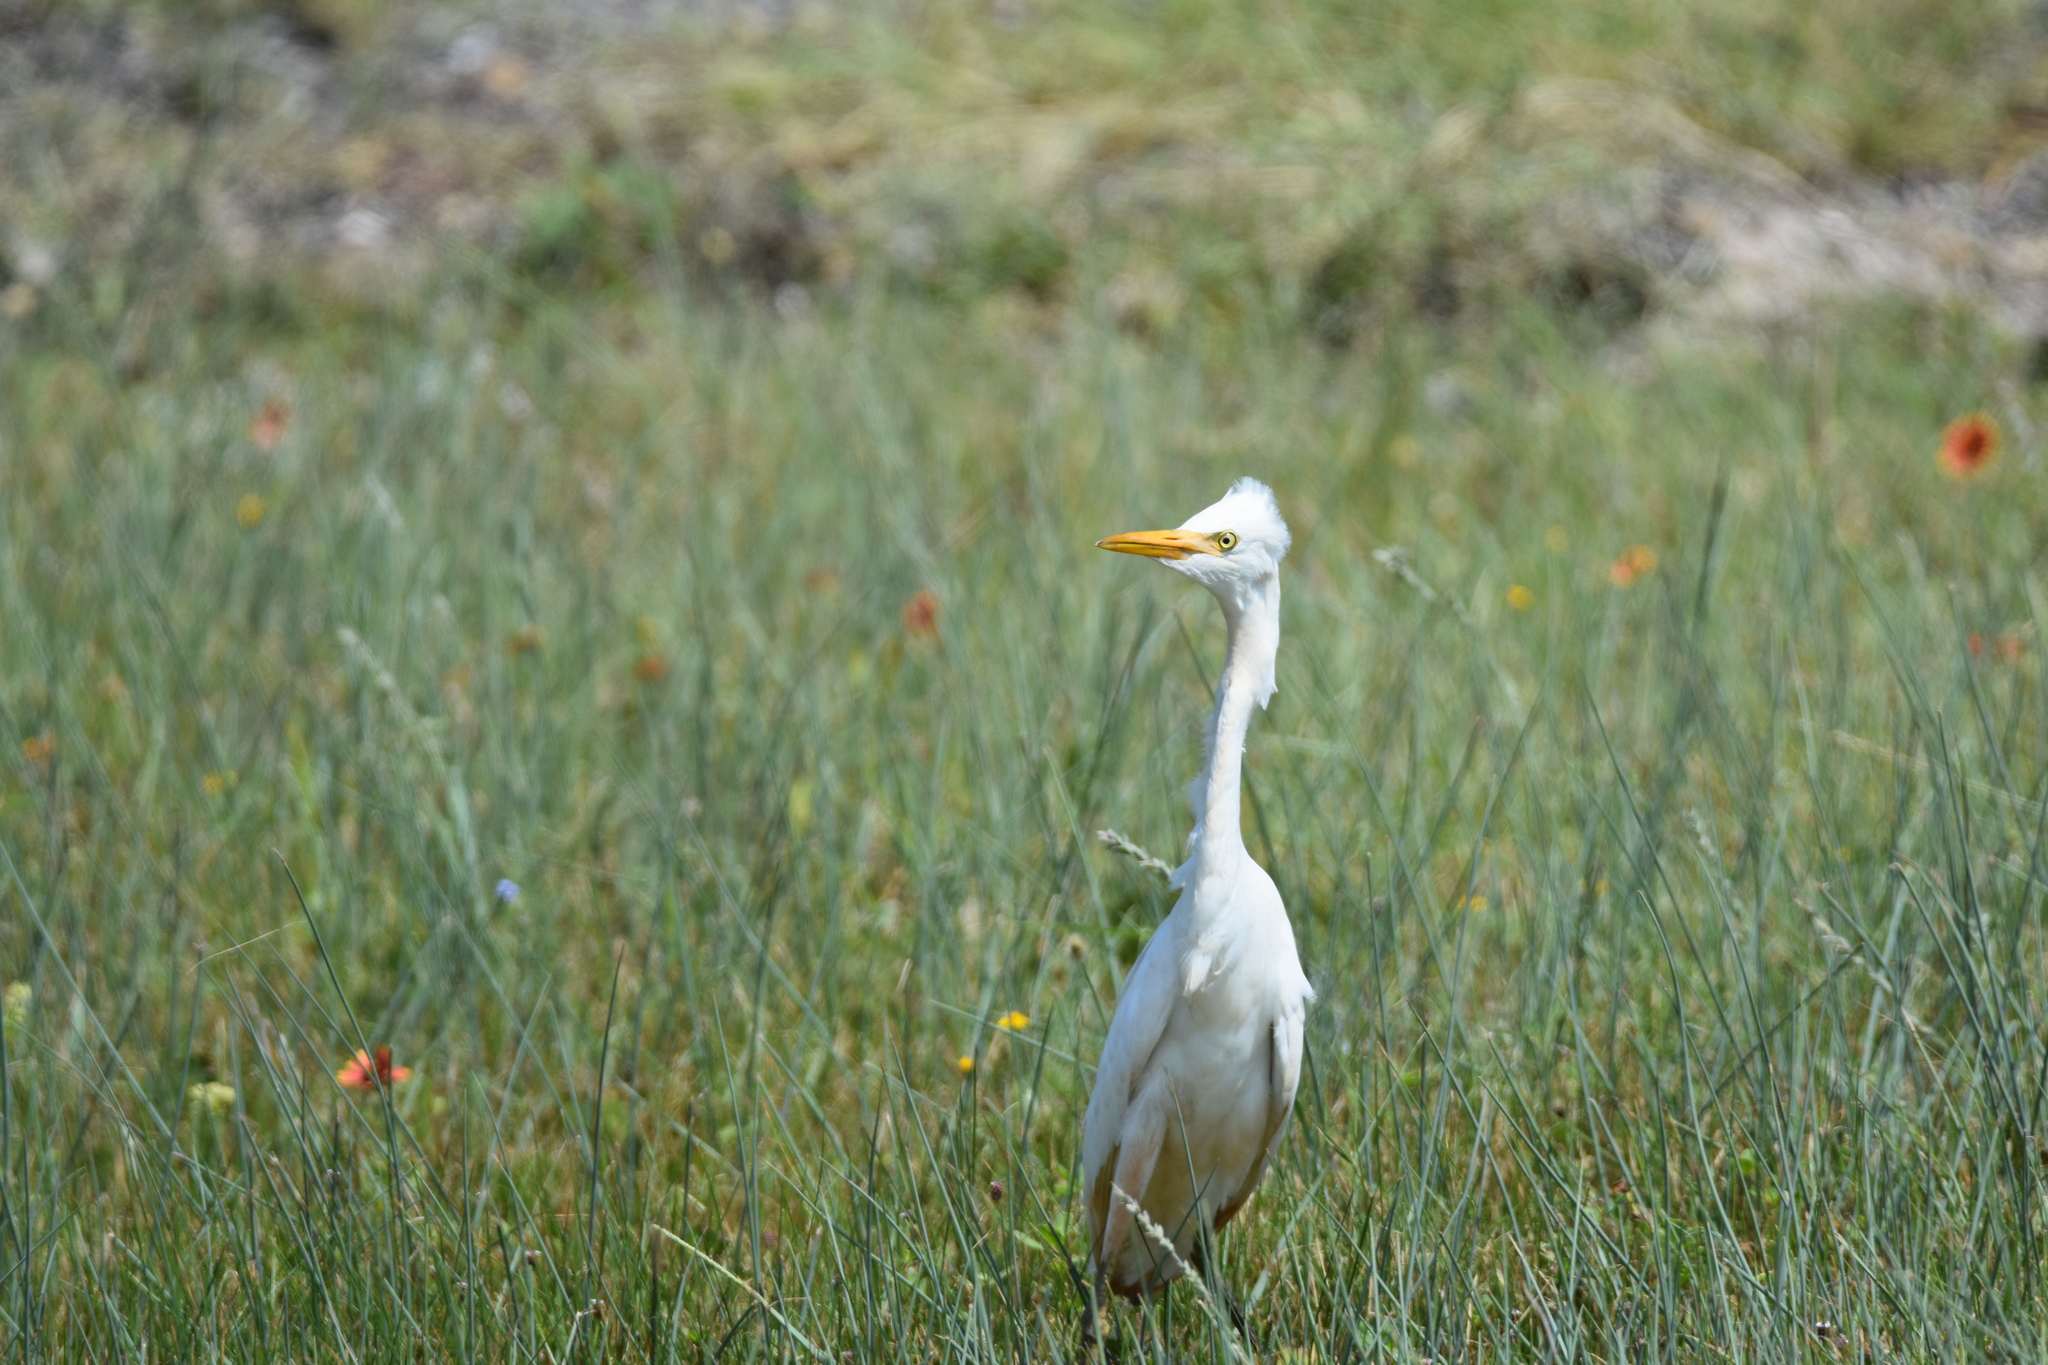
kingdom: Animalia
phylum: Chordata
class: Aves
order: Pelecaniformes
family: Ardeidae
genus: Bubulcus
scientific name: Bubulcus ibis
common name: Cattle egret
